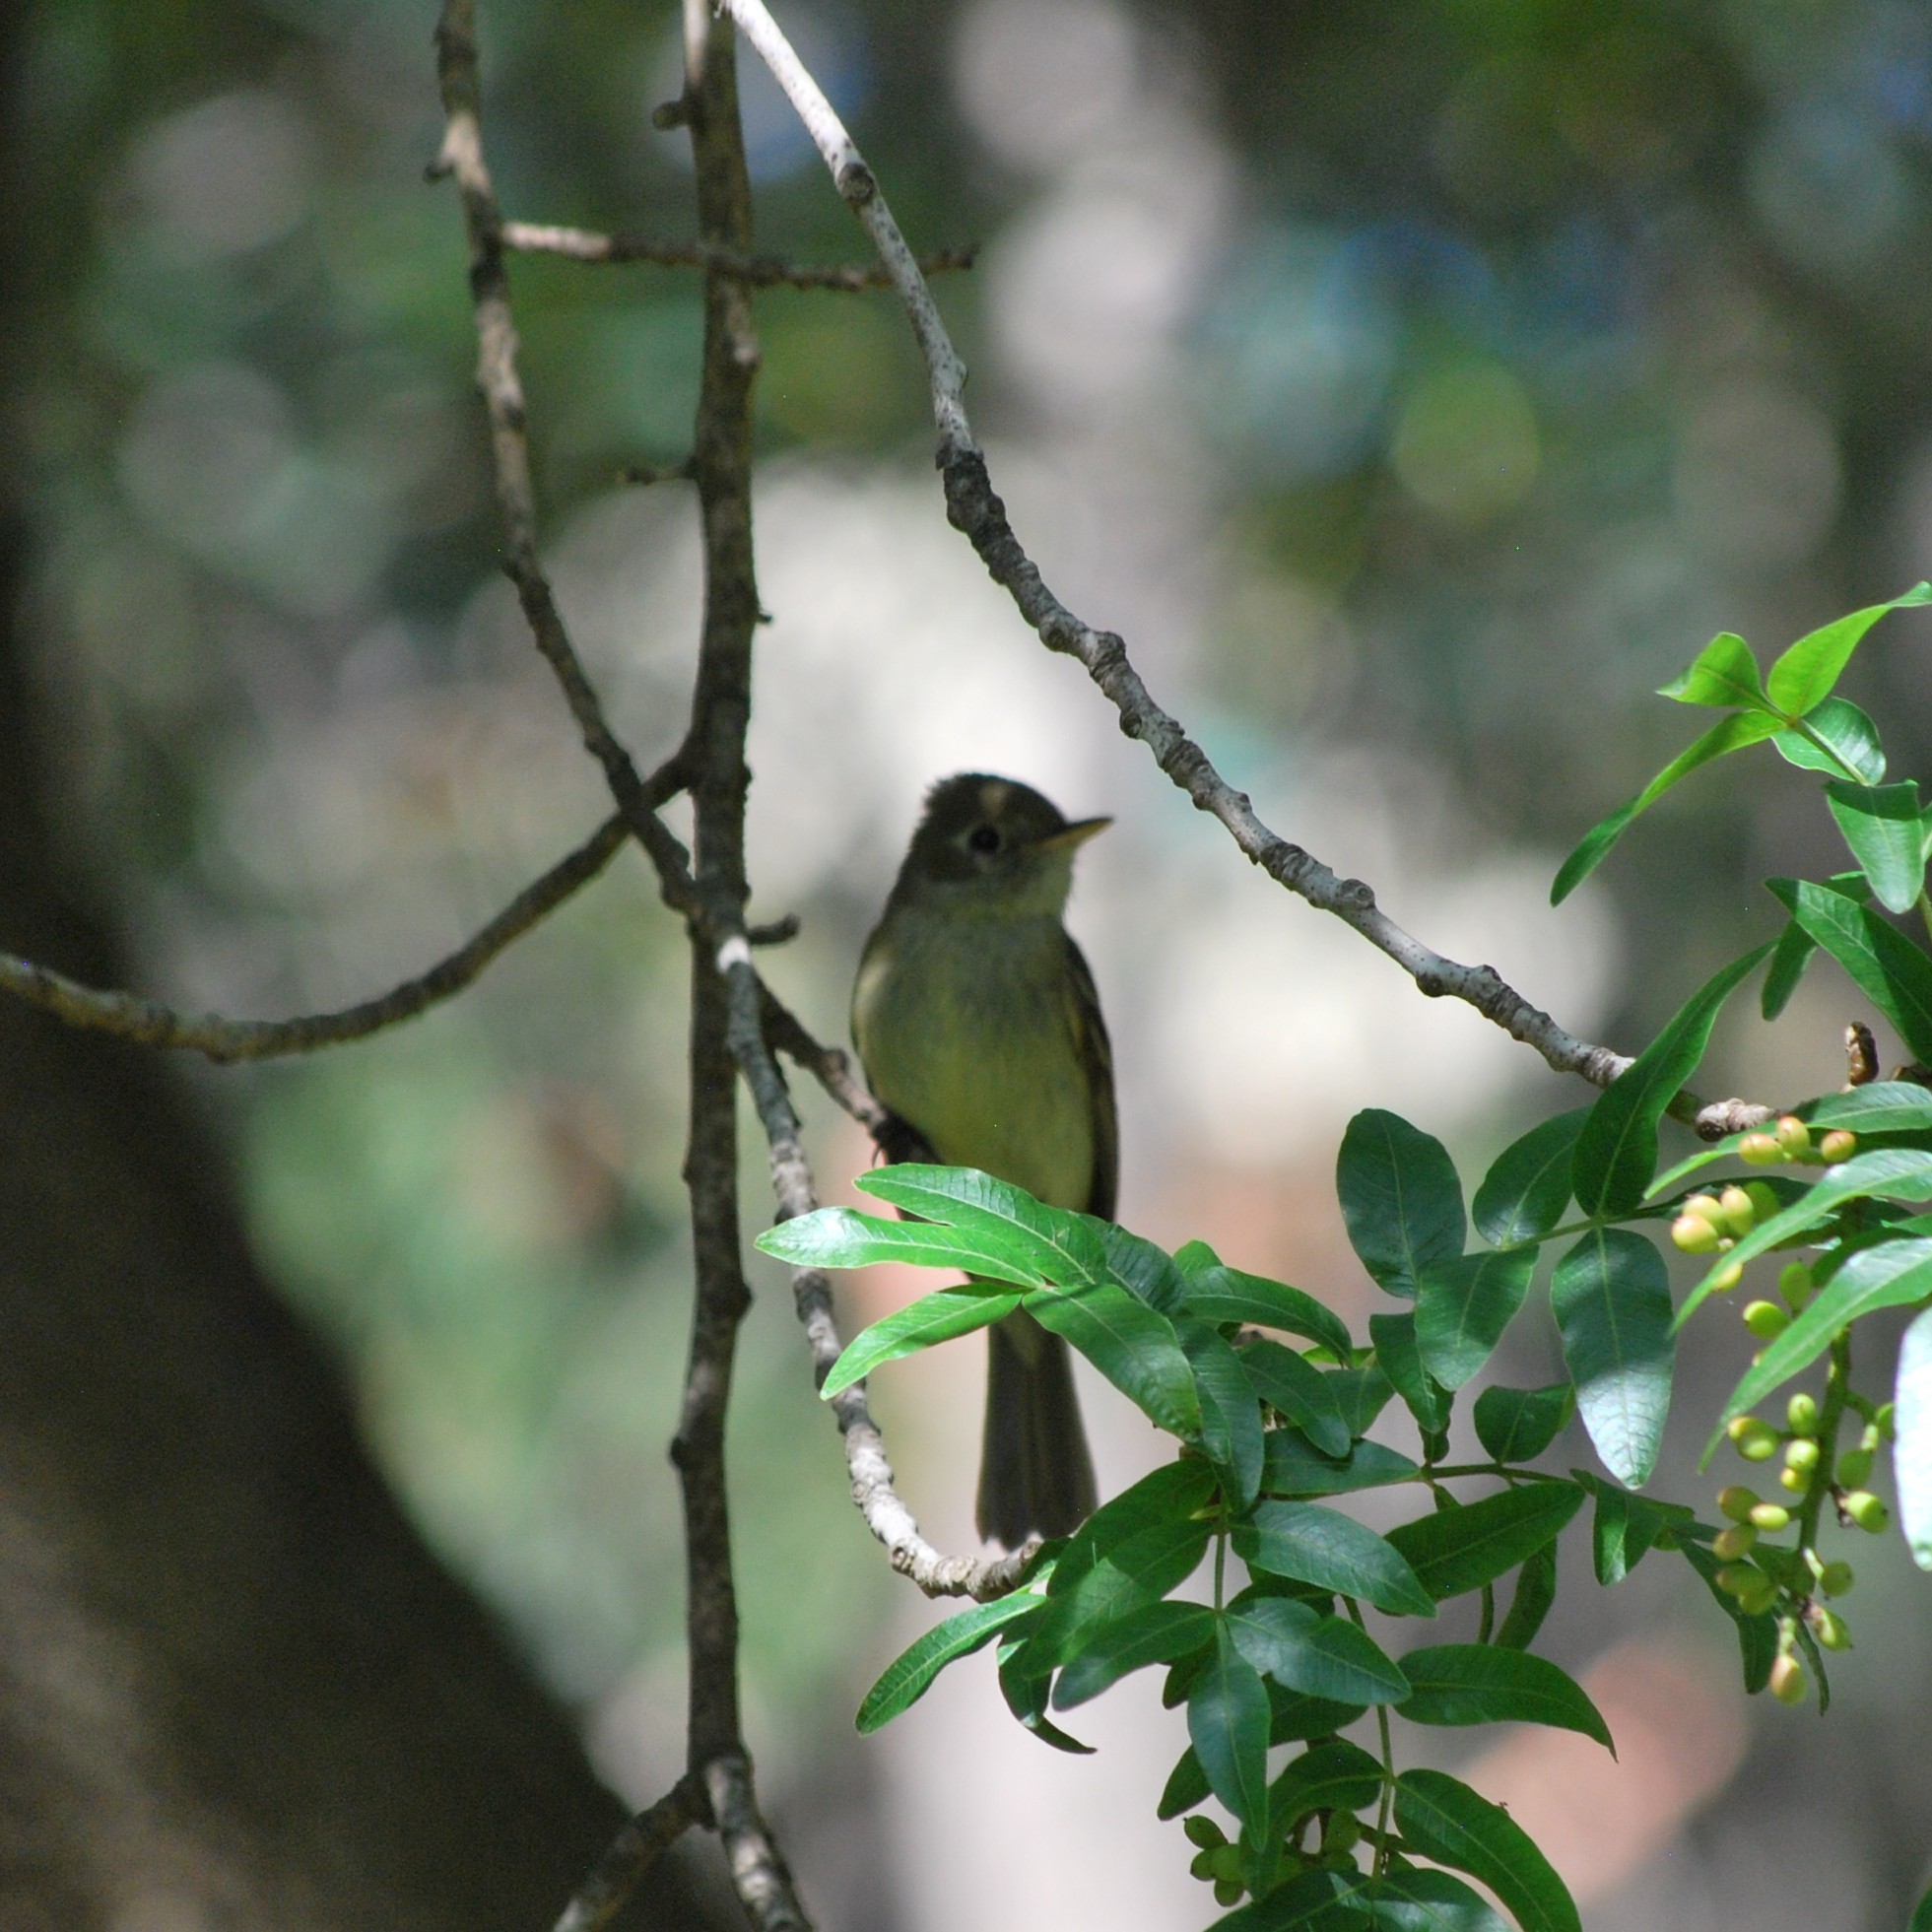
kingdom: Animalia
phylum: Chordata
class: Aves
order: Passeriformes
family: Tyrannidae
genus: Empidonax
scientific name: Empidonax difficilis
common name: Pacific-slope flycatcher
